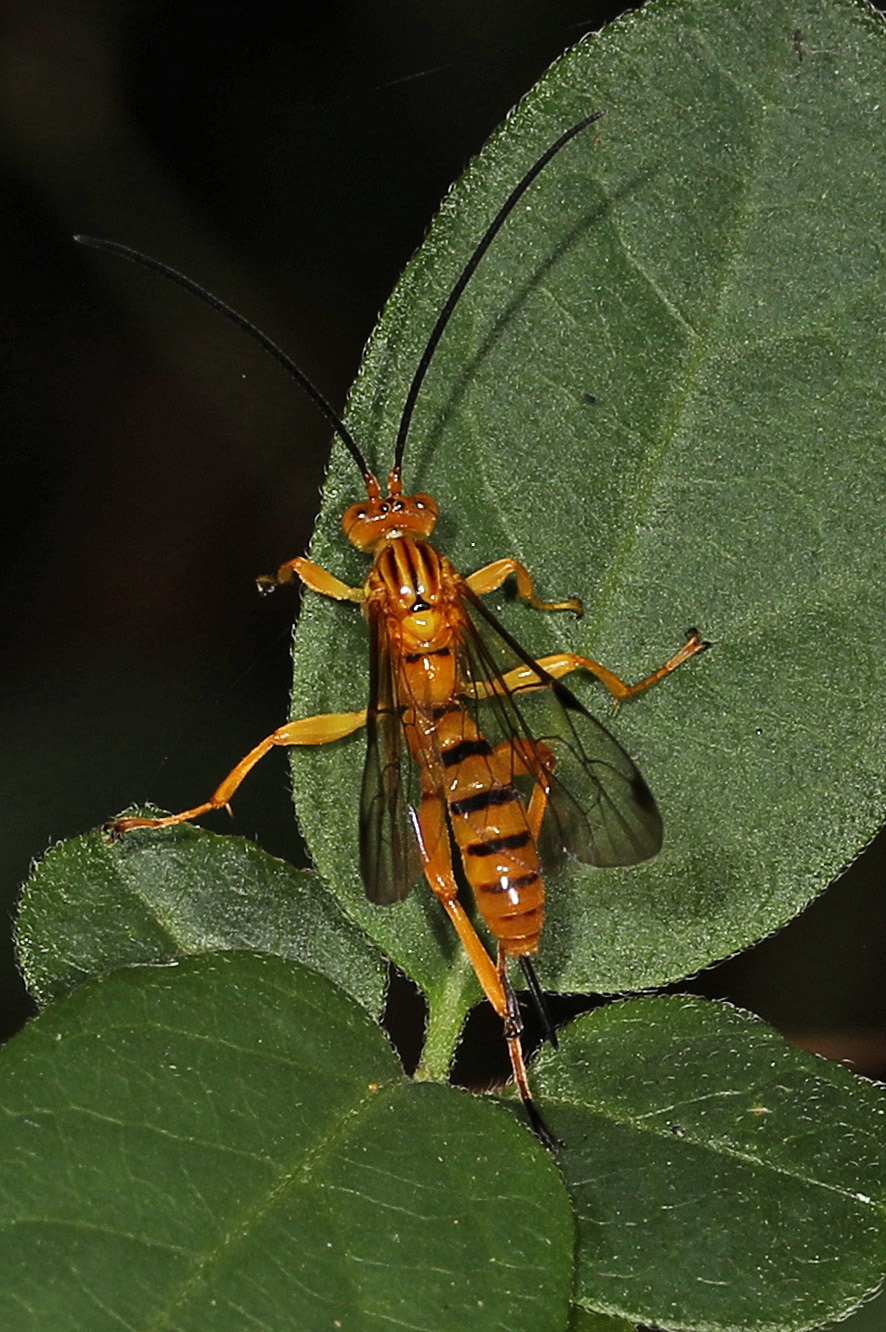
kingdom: Animalia
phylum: Arthropoda
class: Insecta
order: Hymenoptera
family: Ichneumonidae
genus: Neotheronia
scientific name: Neotheronia septemtrionalis
